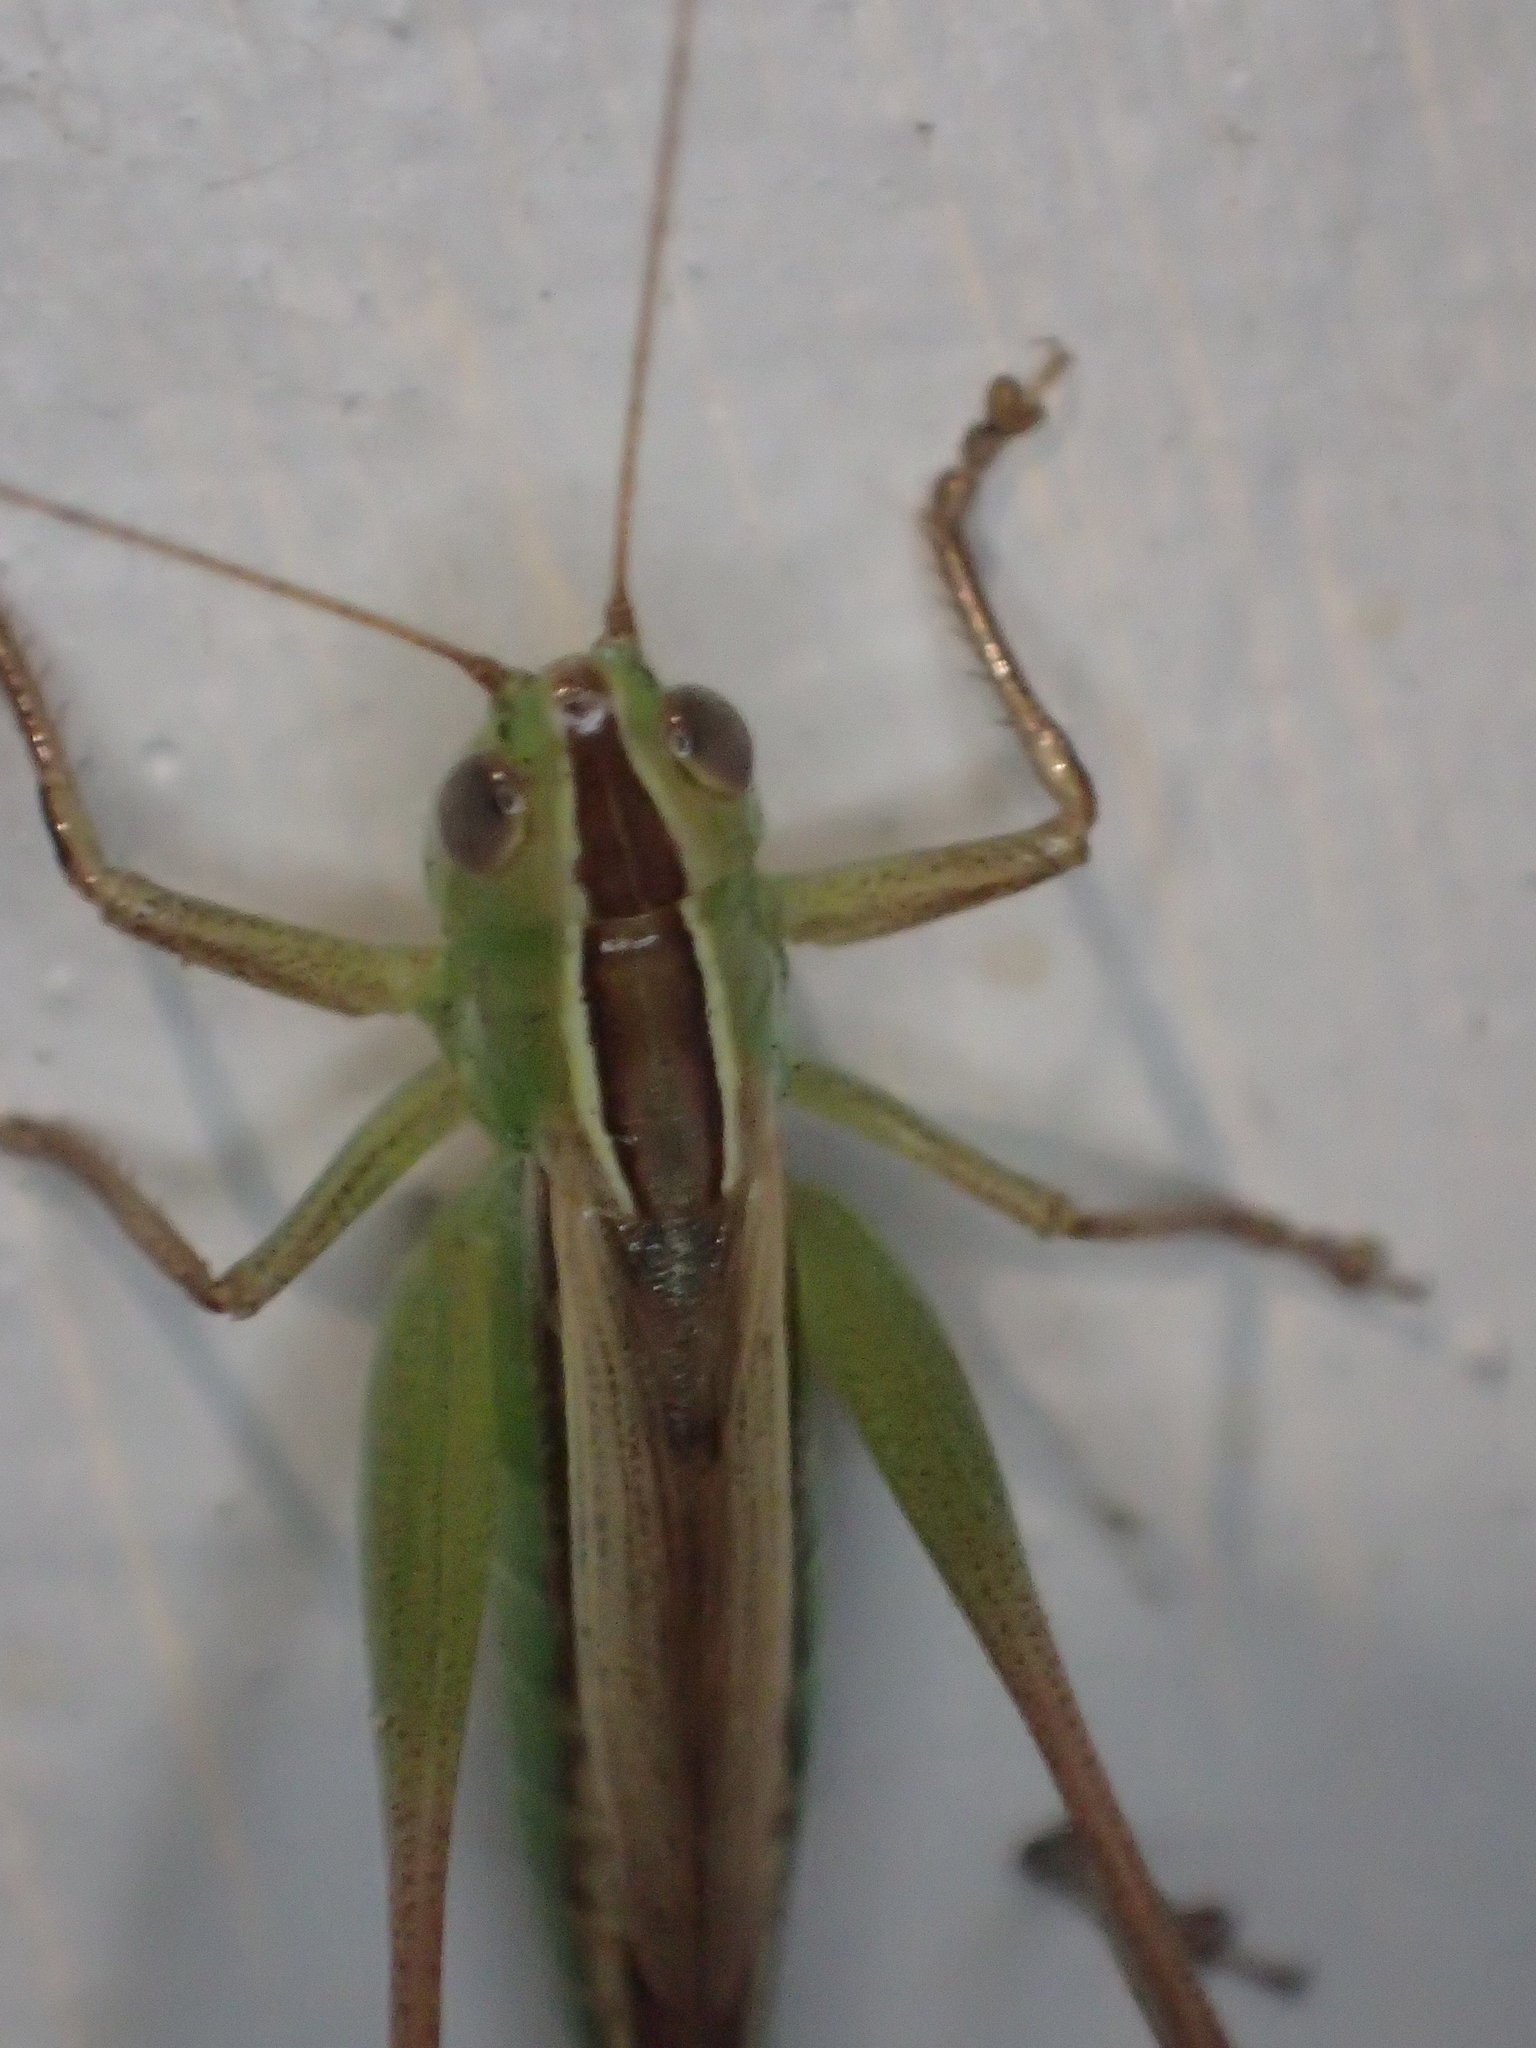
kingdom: Animalia
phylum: Arthropoda
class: Insecta
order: Orthoptera
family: Tettigoniidae
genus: Conocephalus
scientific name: Conocephalus albescens
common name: Whitish meadow katydid
